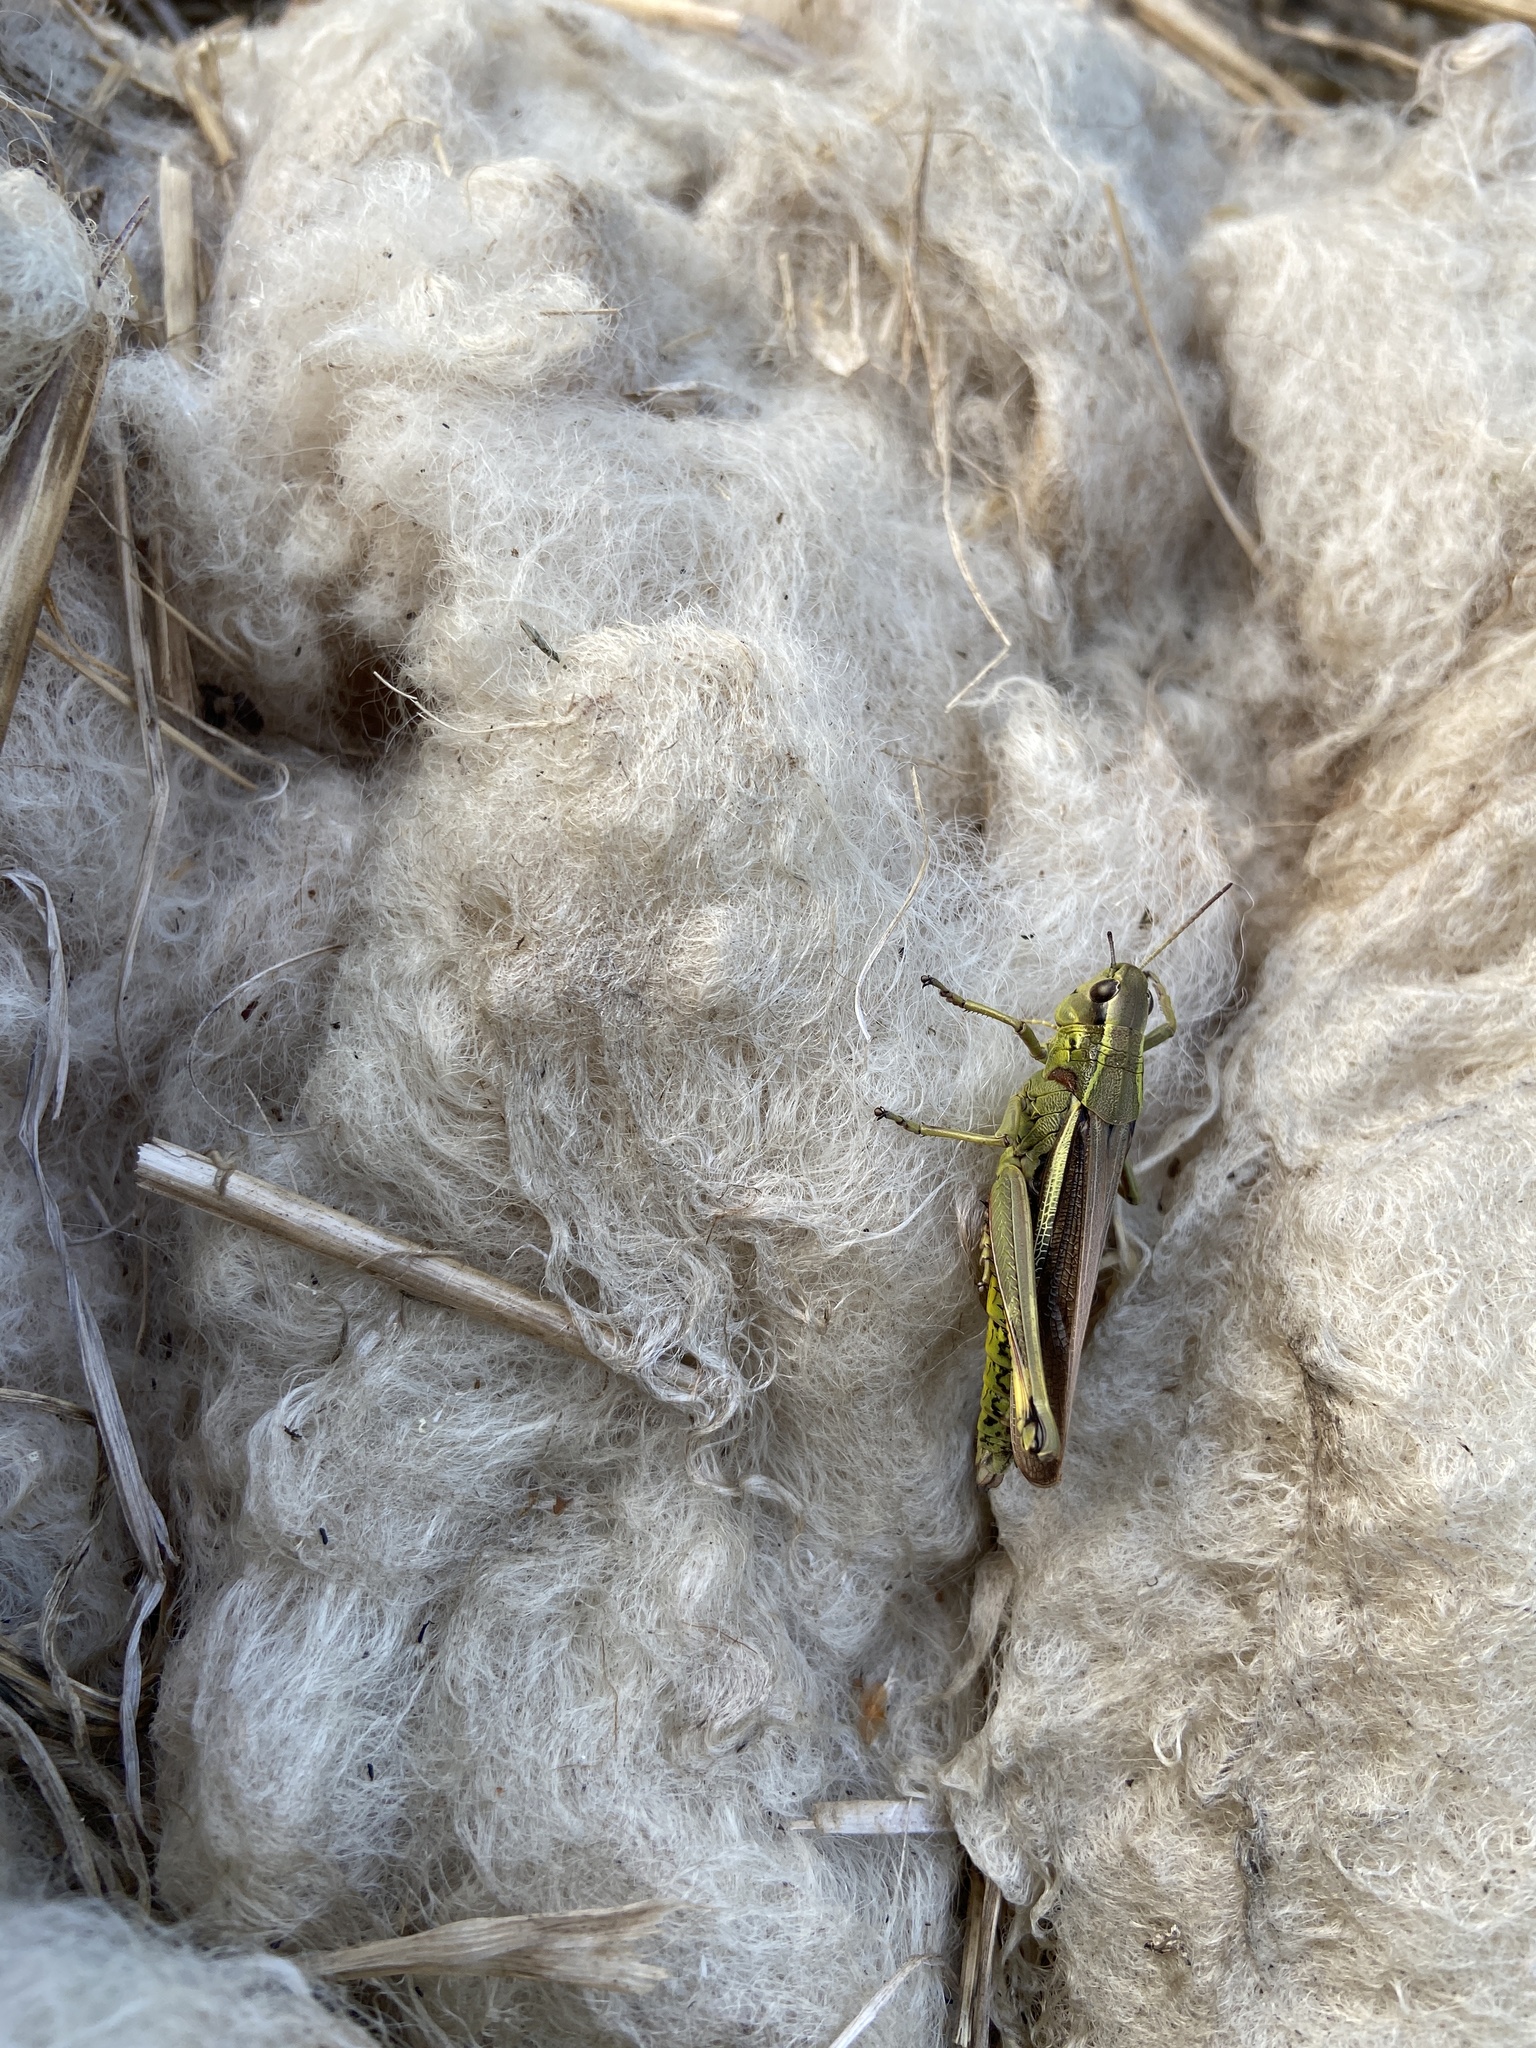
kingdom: Animalia
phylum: Arthropoda
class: Insecta
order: Orthoptera
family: Acrididae
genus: Stethophyma
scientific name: Stethophyma grossum
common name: Large marsh grasshopper
